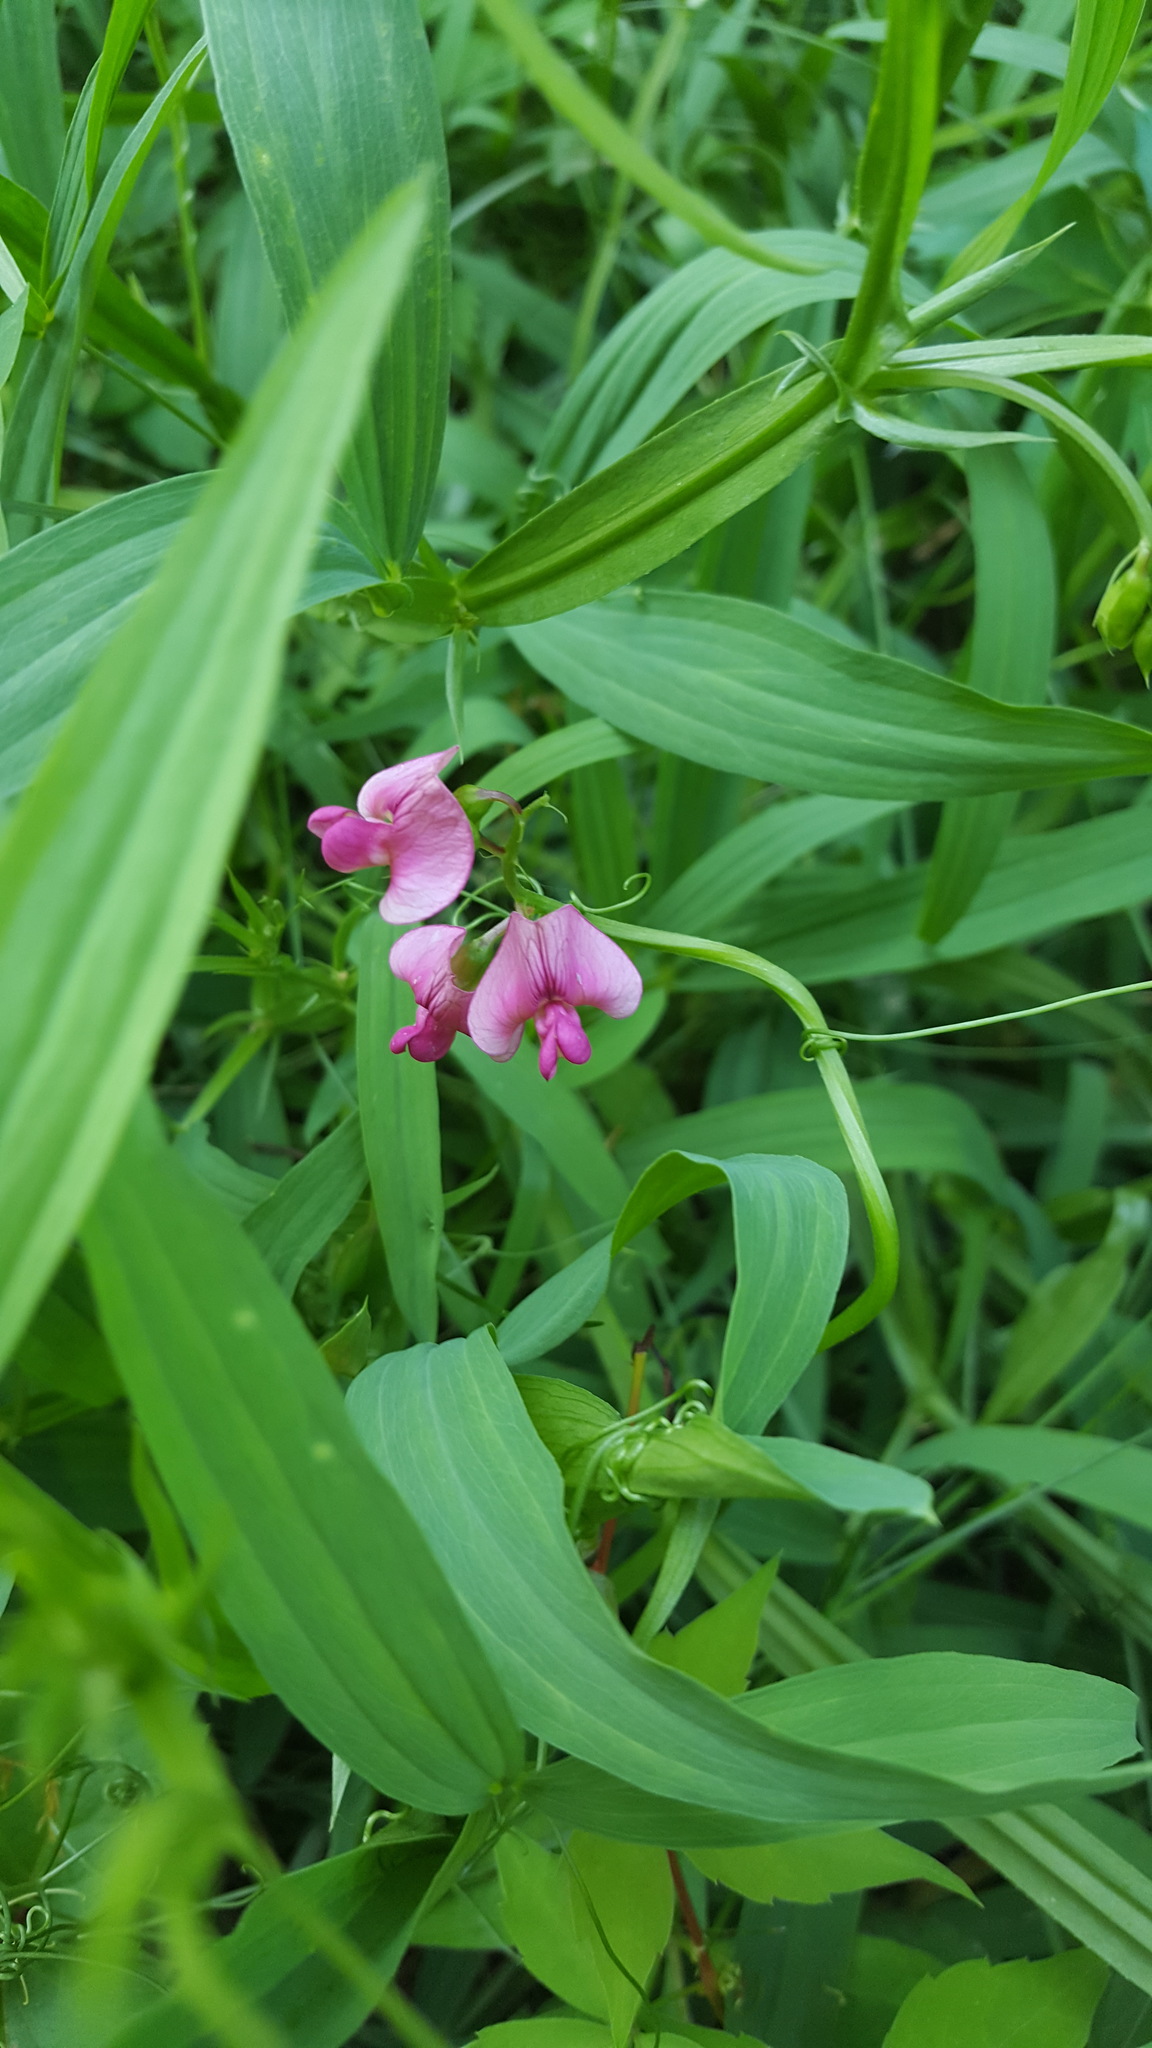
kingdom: Plantae
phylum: Tracheophyta
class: Magnoliopsida
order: Fabales
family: Fabaceae
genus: Lathyrus
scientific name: Lathyrus latifolius
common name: Perennial pea
